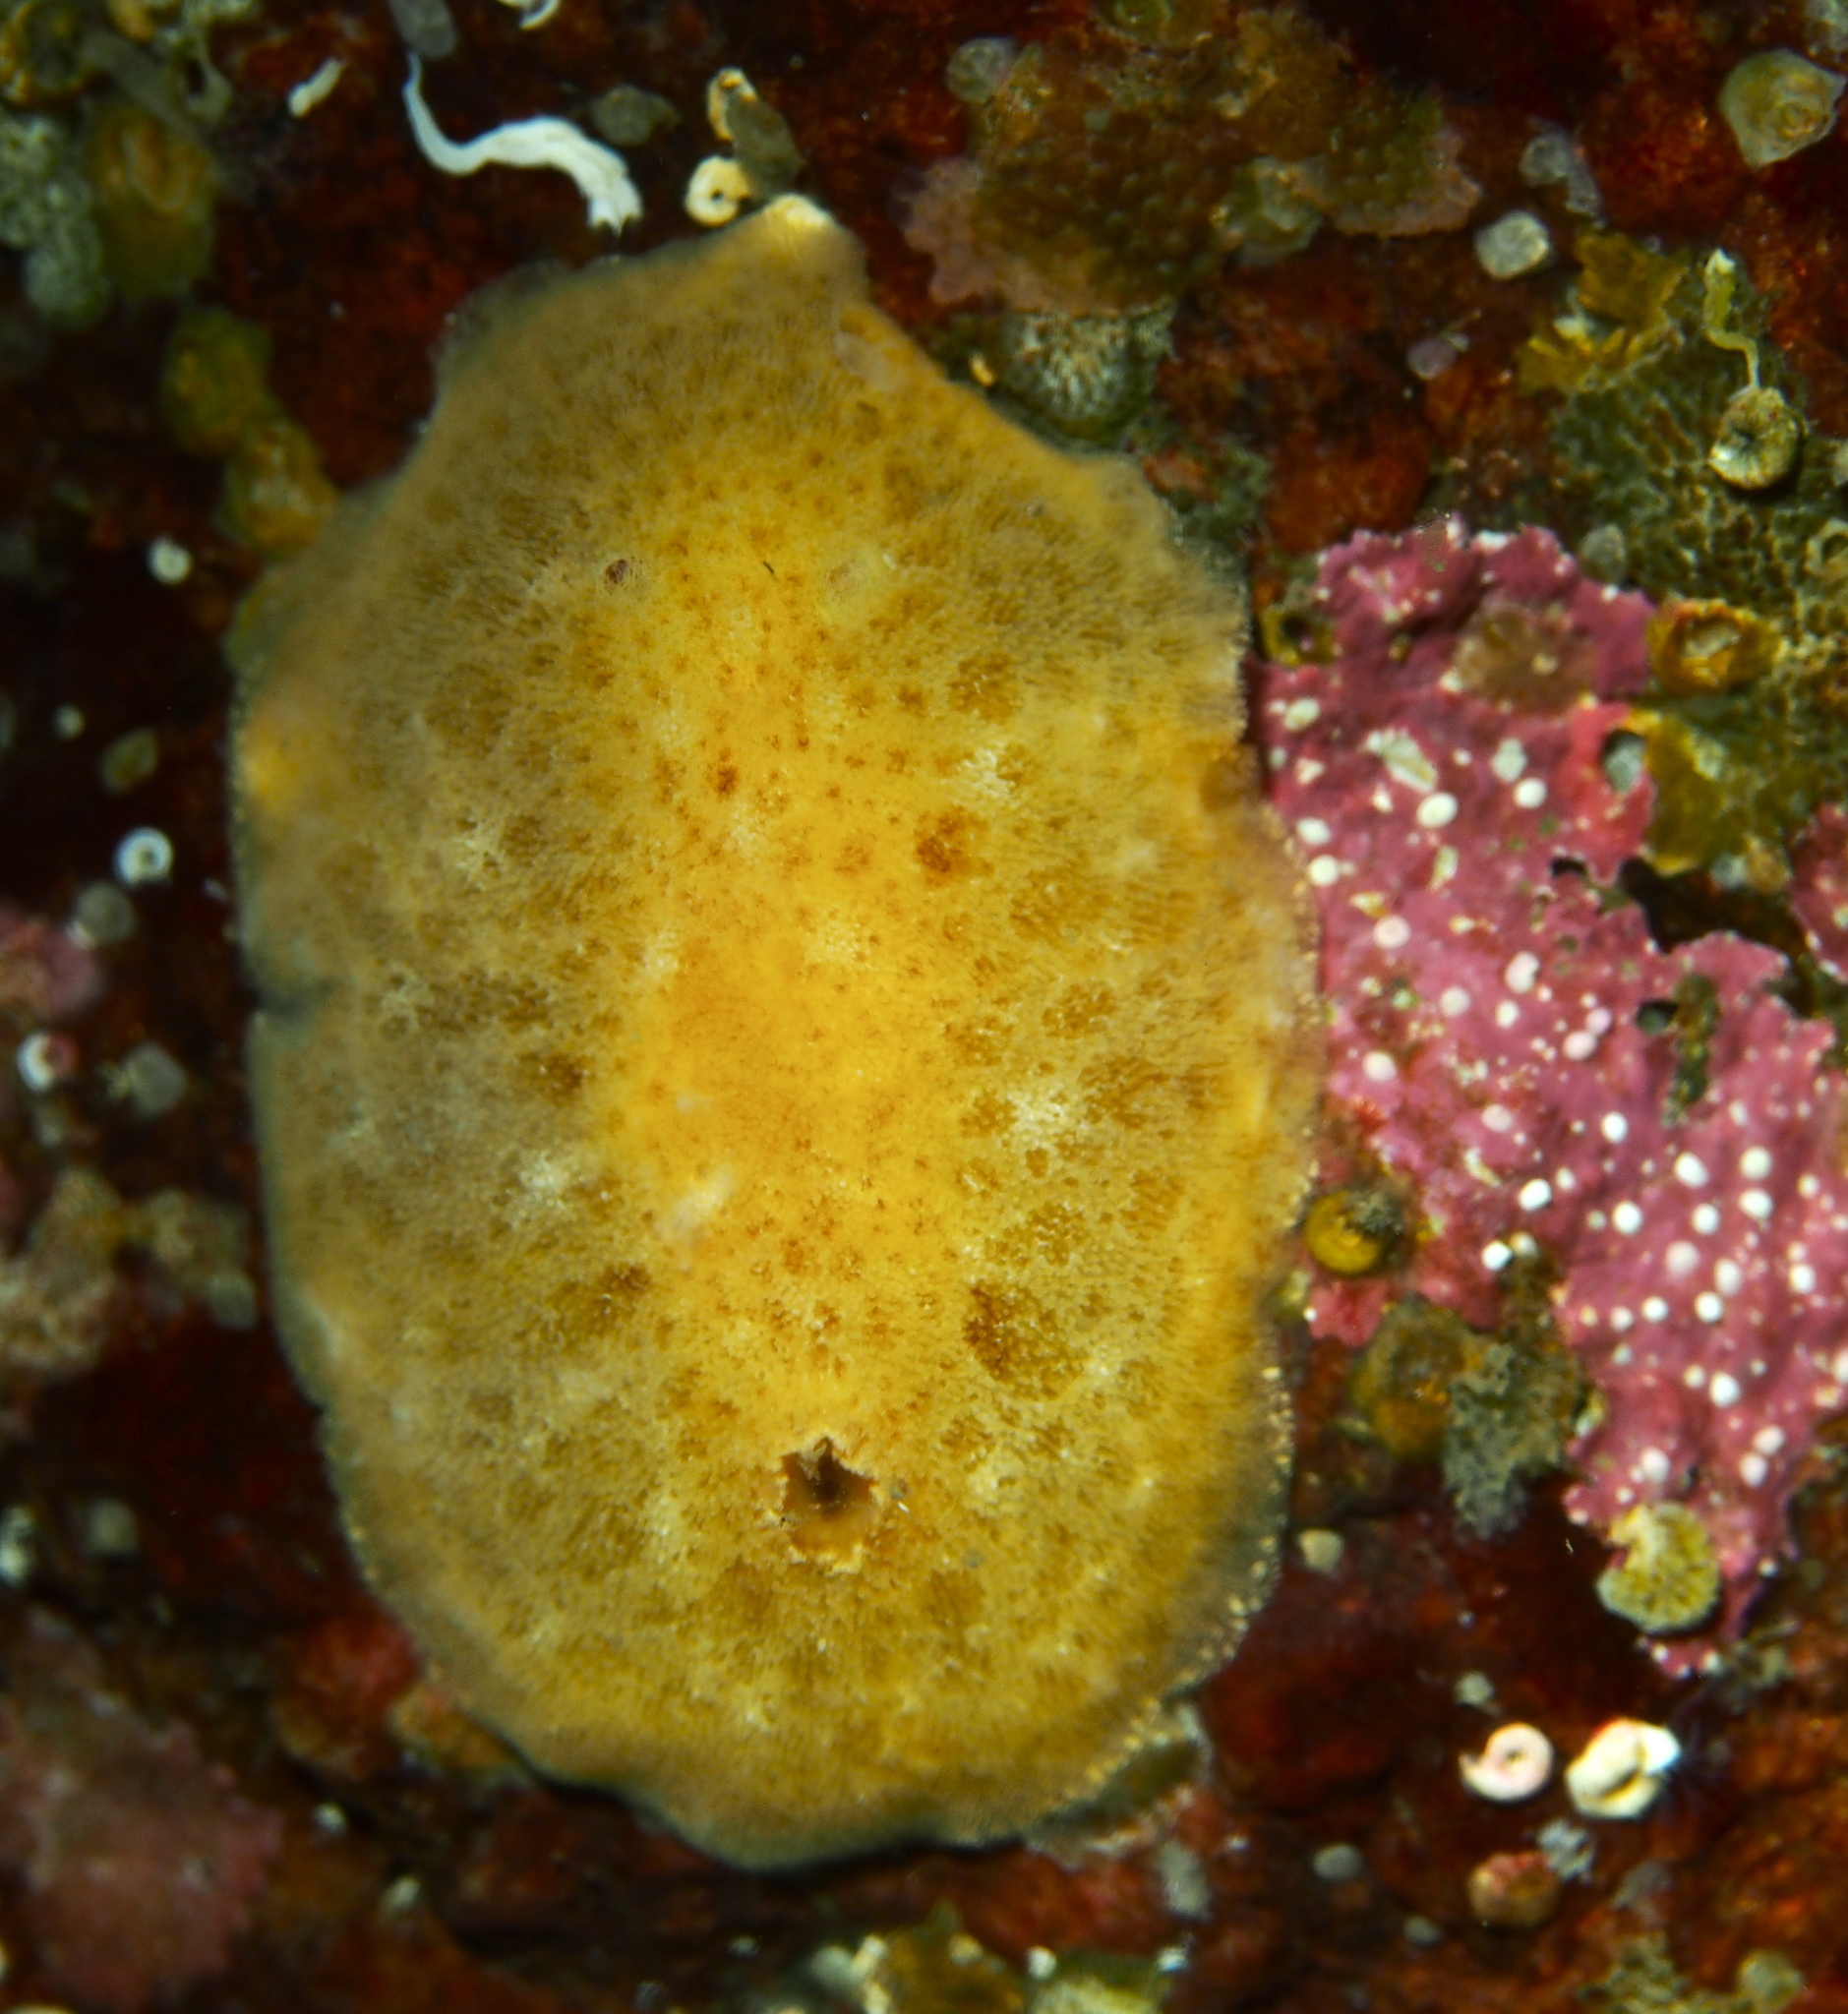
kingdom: Animalia
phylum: Mollusca
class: Gastropoda
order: Nudibranchia
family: Discodorididae
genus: Jorunna
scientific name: Jorunna tomentosa
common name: Grey sea slug
